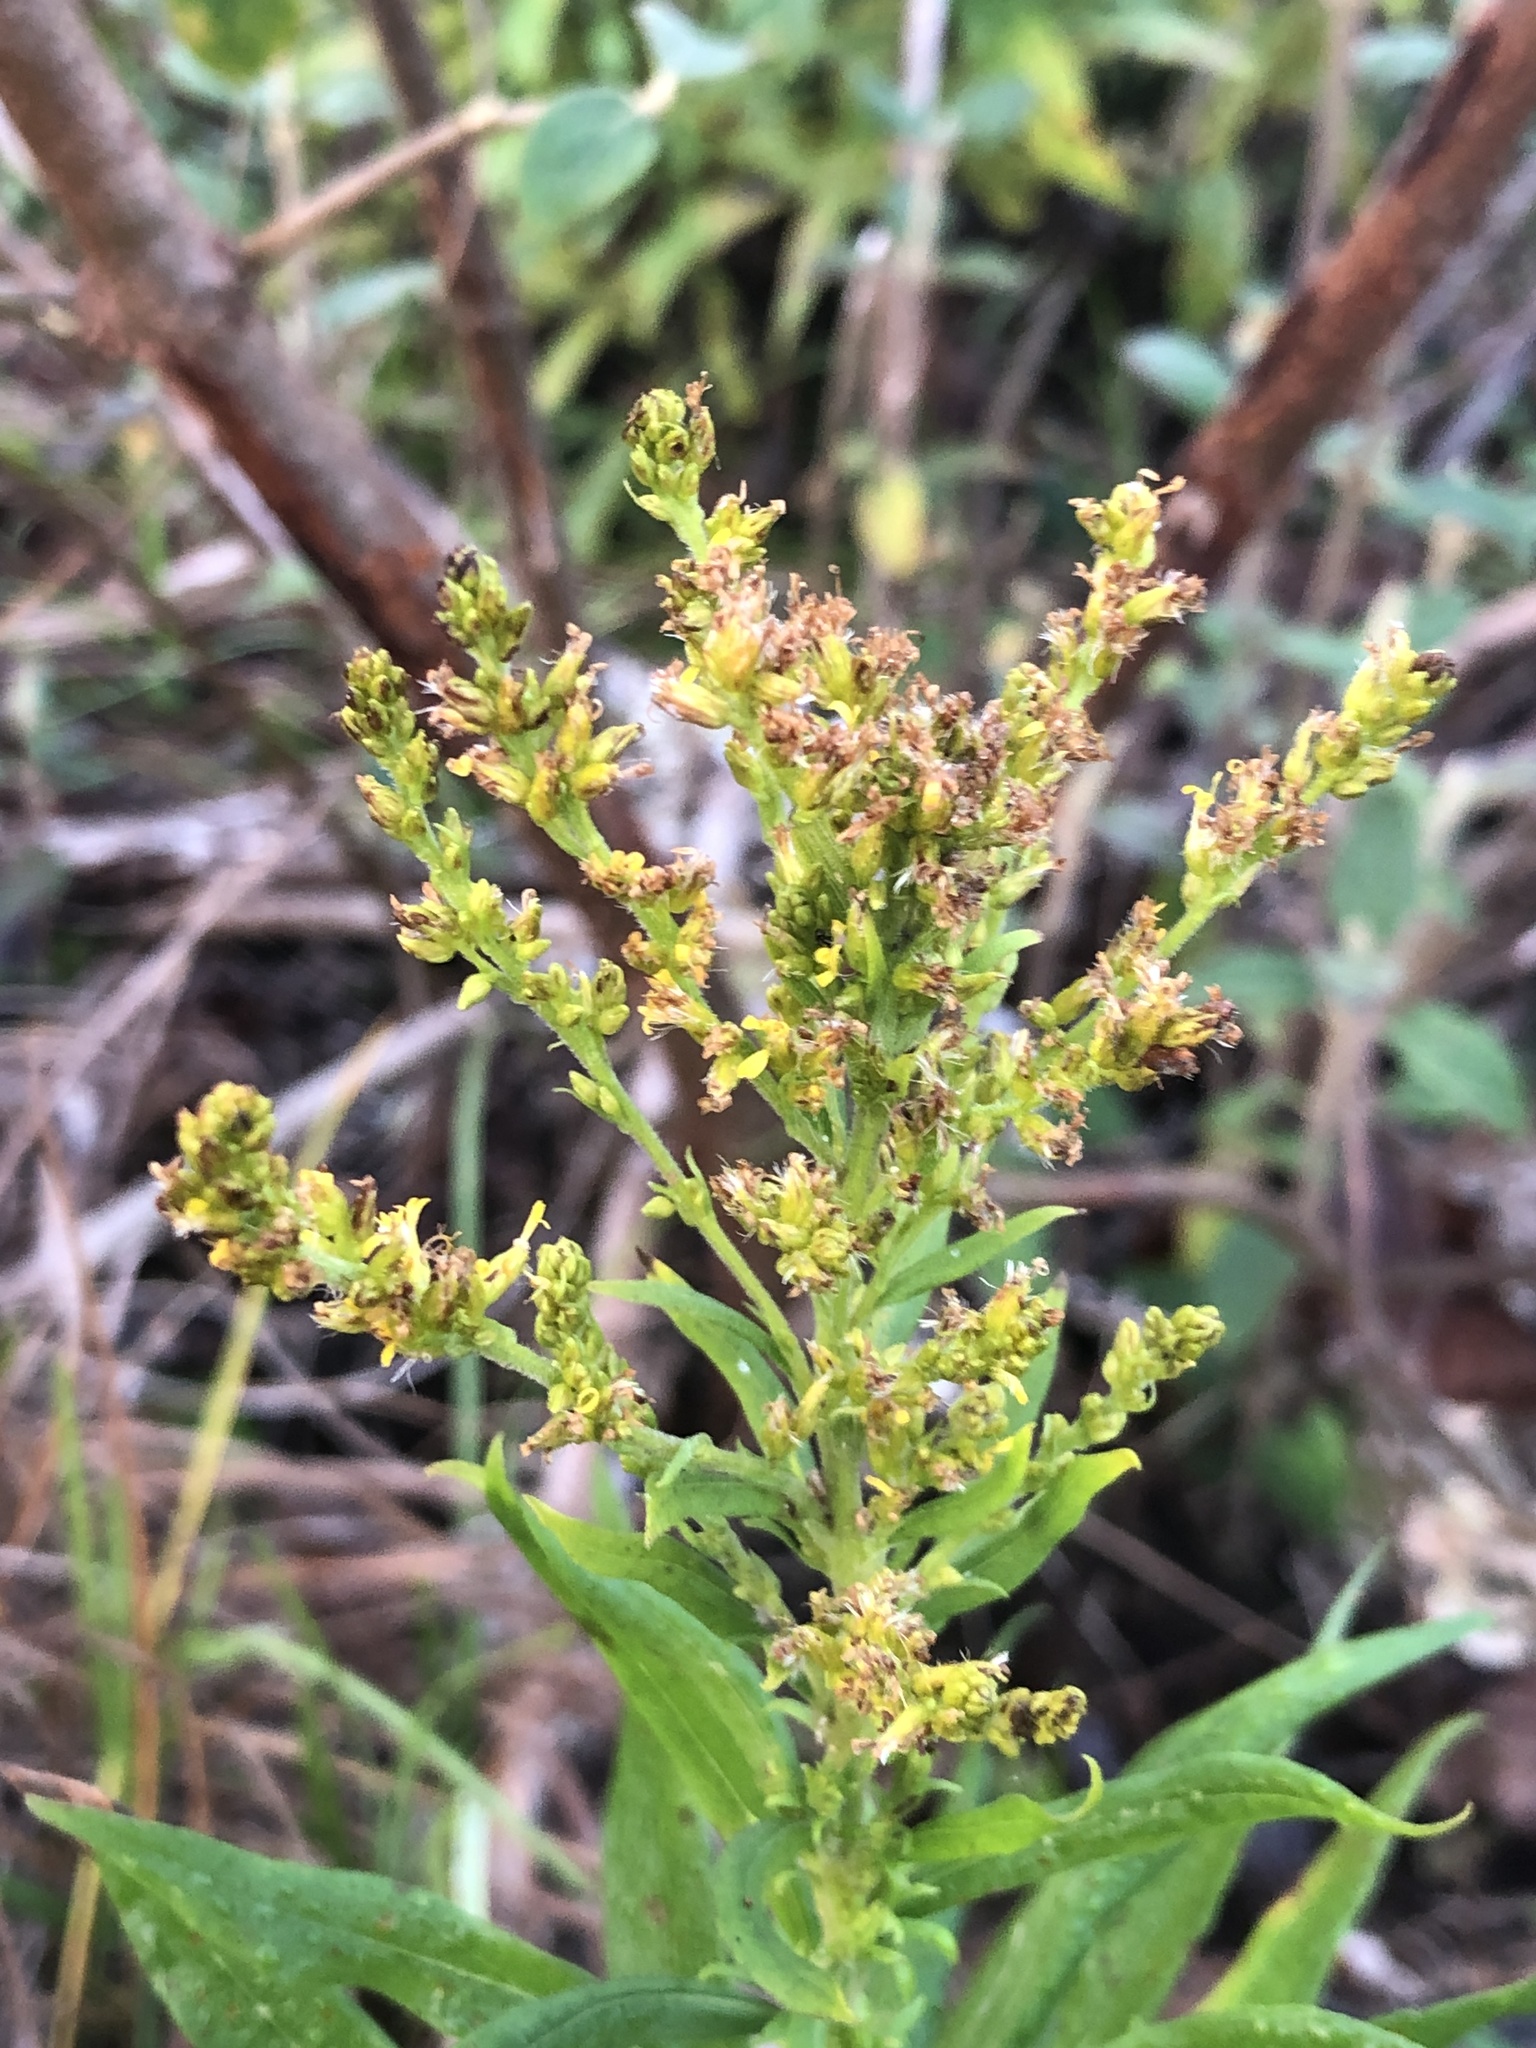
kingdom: Plantae
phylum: Tracheophyta
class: Magnoliopsida
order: Asterales
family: Asteraceae
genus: Solidago
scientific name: Solidago altissima
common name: Late goldenrod
